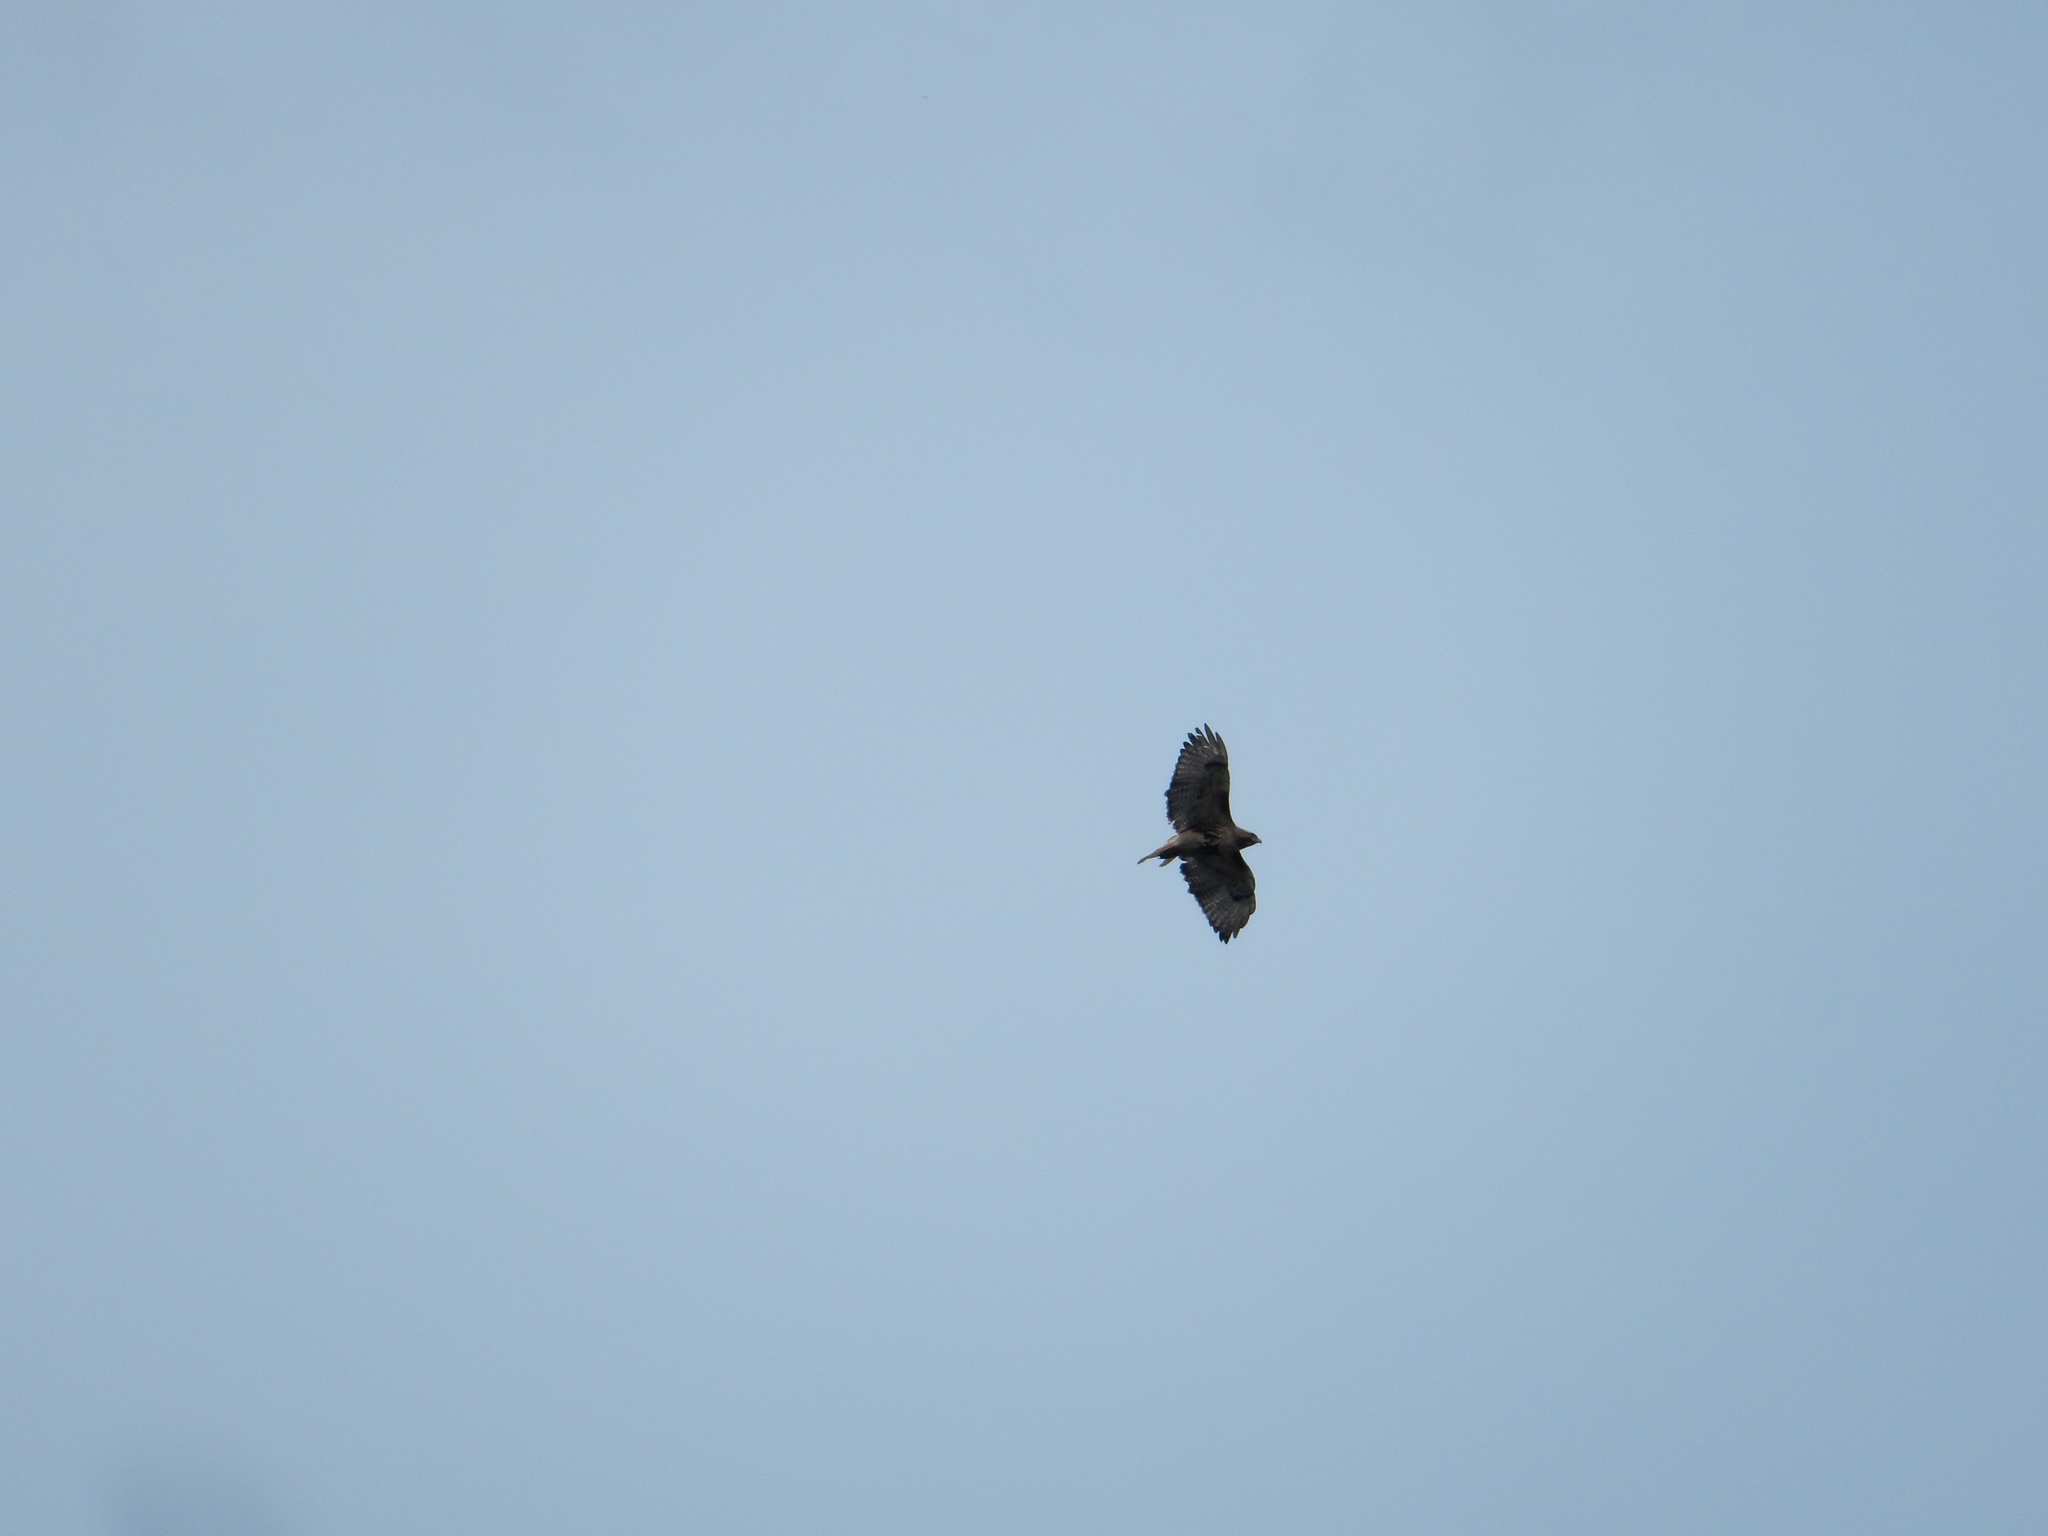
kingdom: Animalia
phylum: Chordata
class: Aves
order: Accipitriformes
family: Accipitridae
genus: Buteo
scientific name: Buteo jamaicensis
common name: Red-tailed hawk
